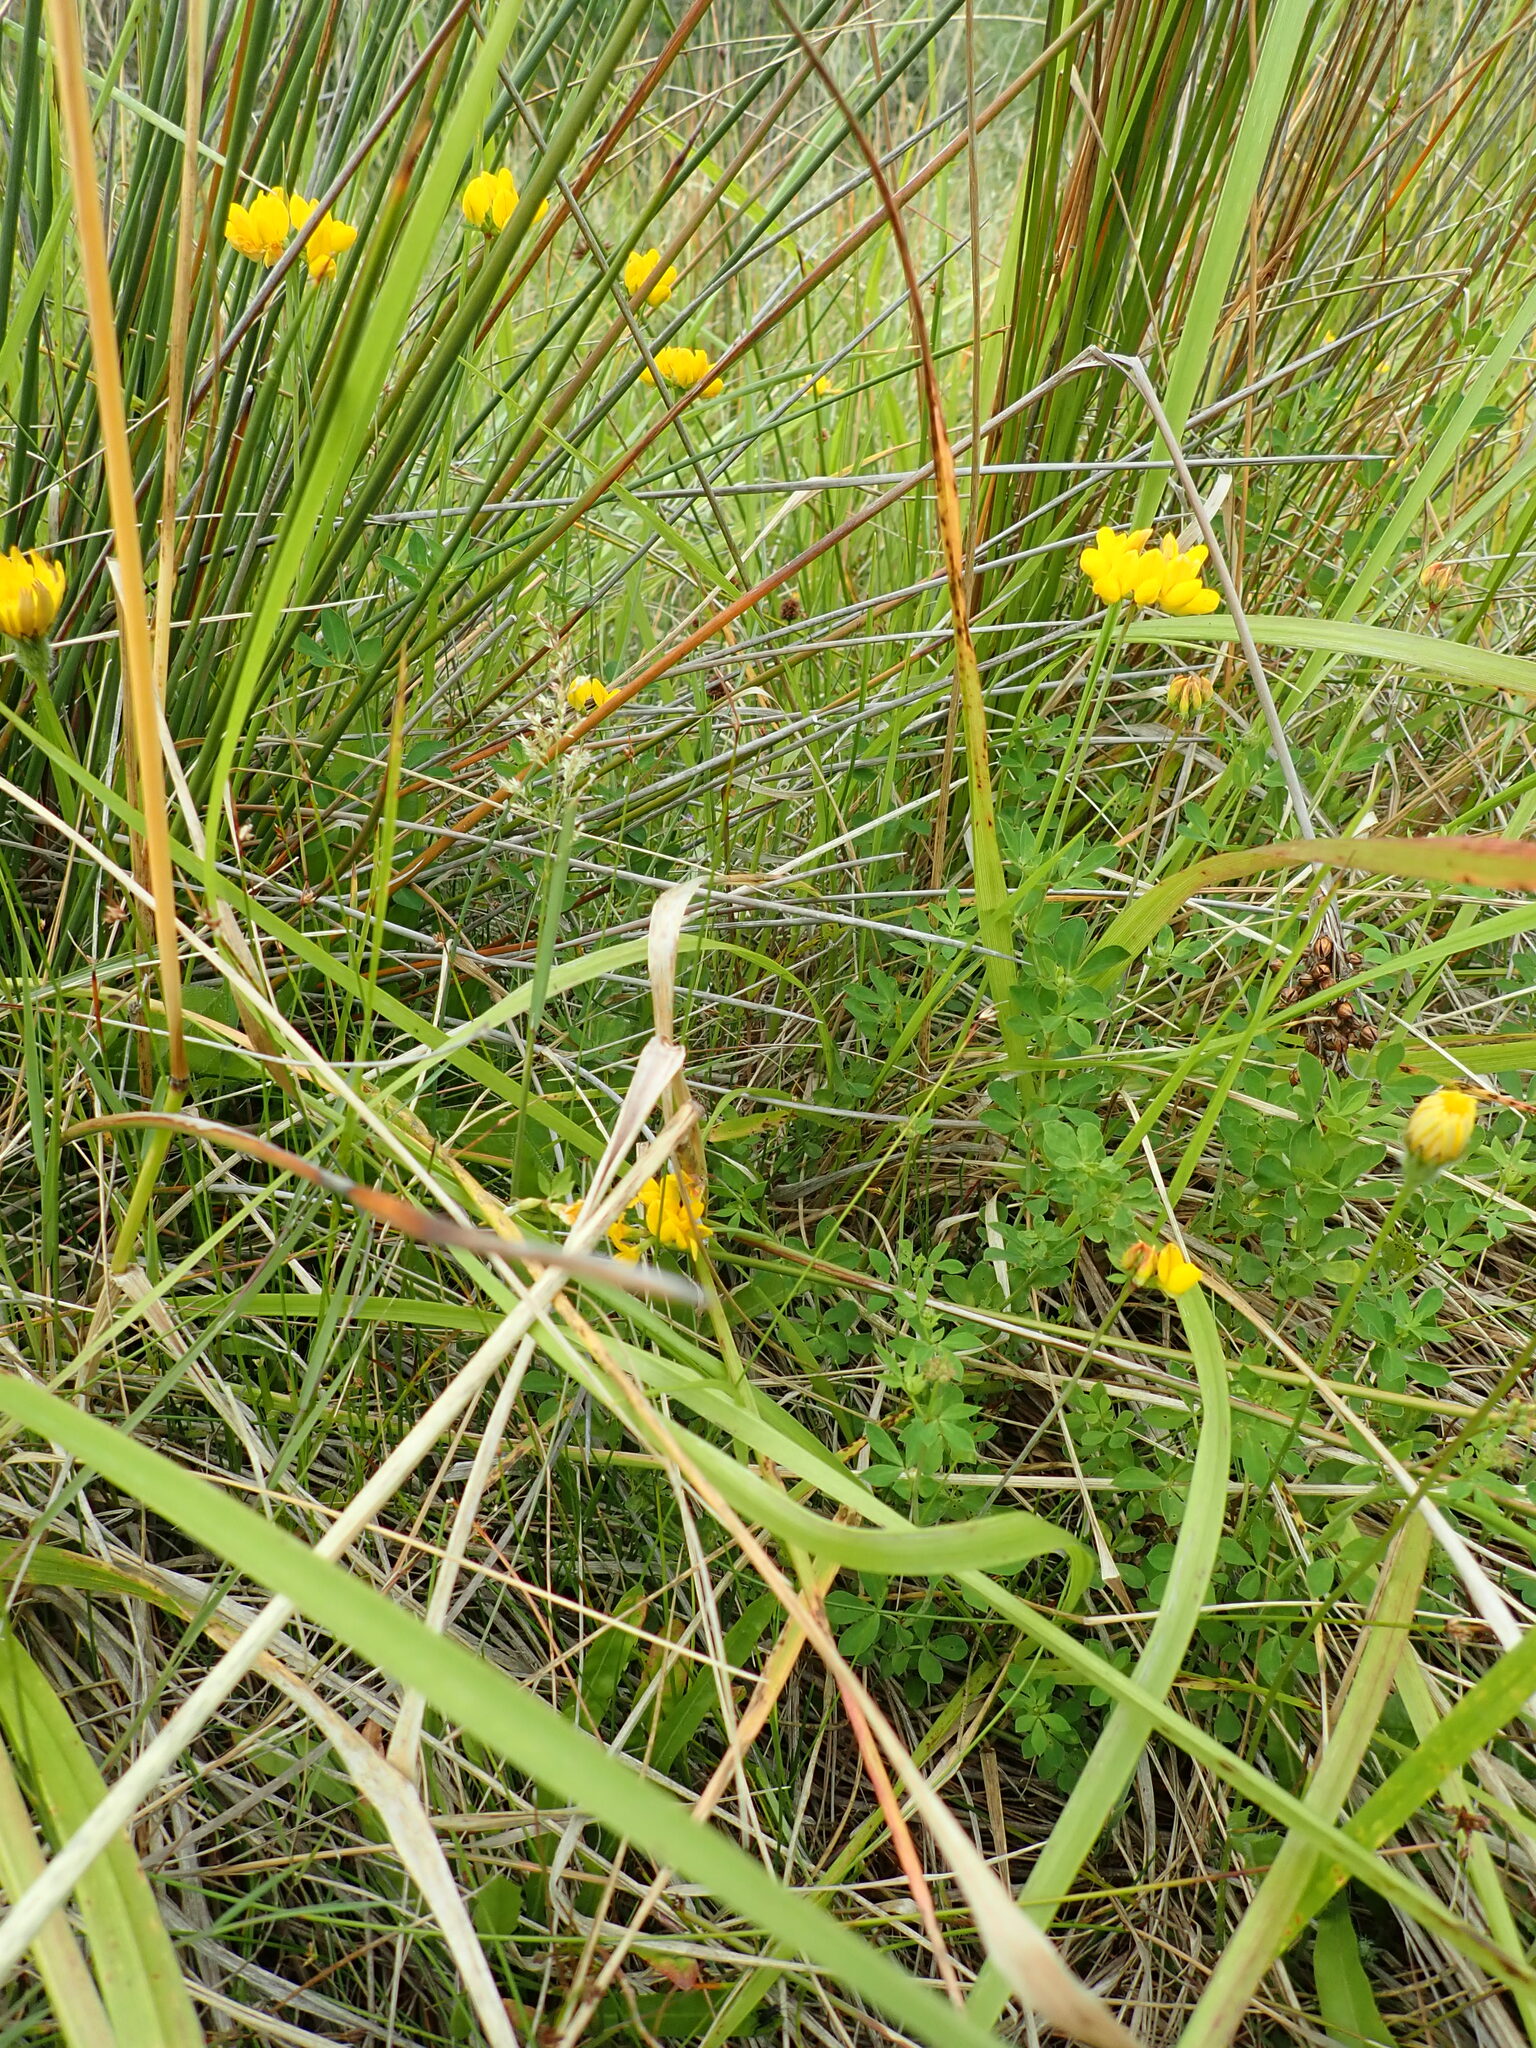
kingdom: Plantae
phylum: Tracheophyta
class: Magnoliopsida
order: Fabales
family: Fabaceae
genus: Lotus
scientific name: Lotus pedunculatus
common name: Greater birdsfoot-trefoil
